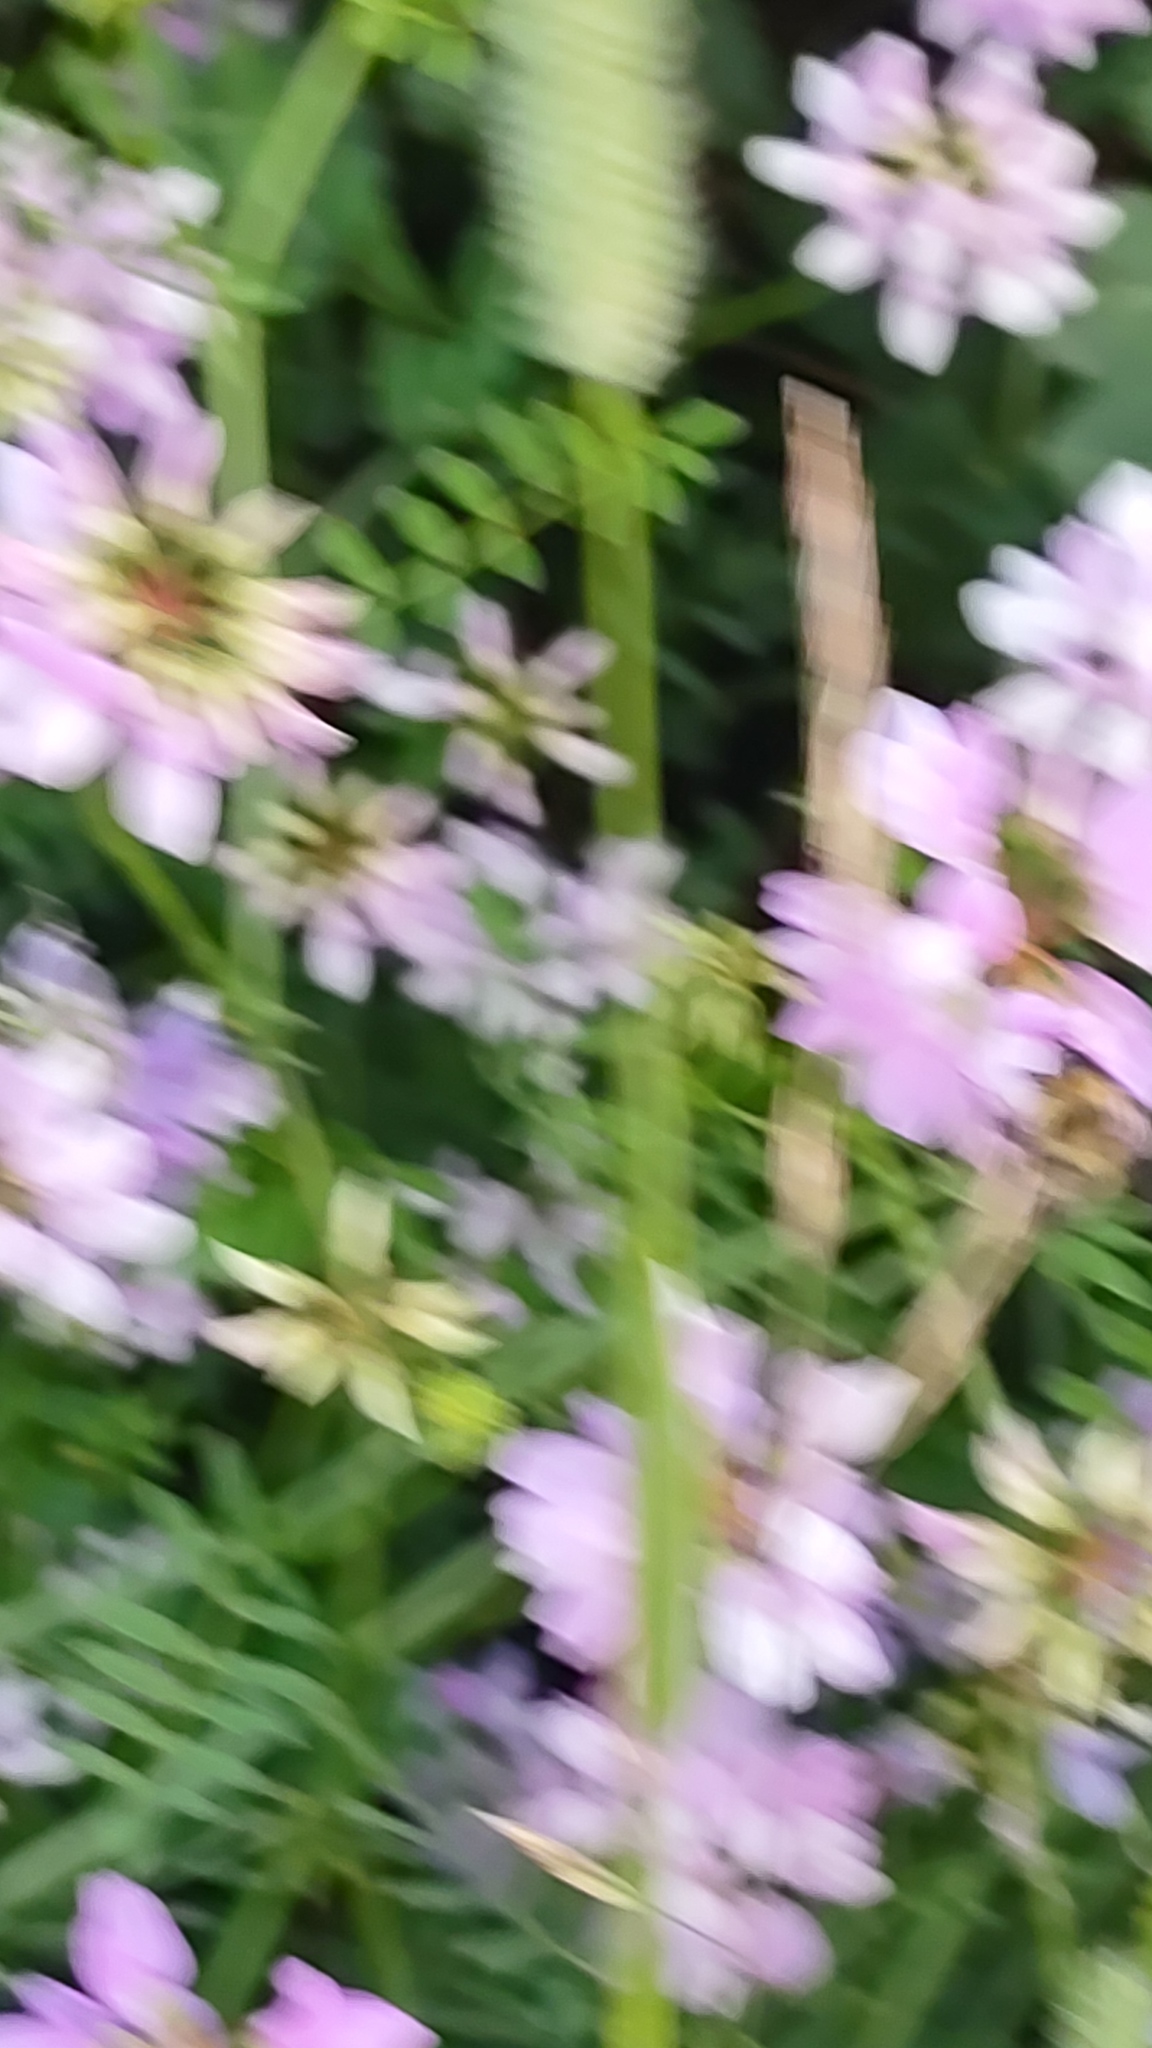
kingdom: Animalia
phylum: Arthropoda
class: Insecta
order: Hymenoptera
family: Apidae
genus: Bombus
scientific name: Bombus bimaculatus
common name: Two-spotted bumble bee
